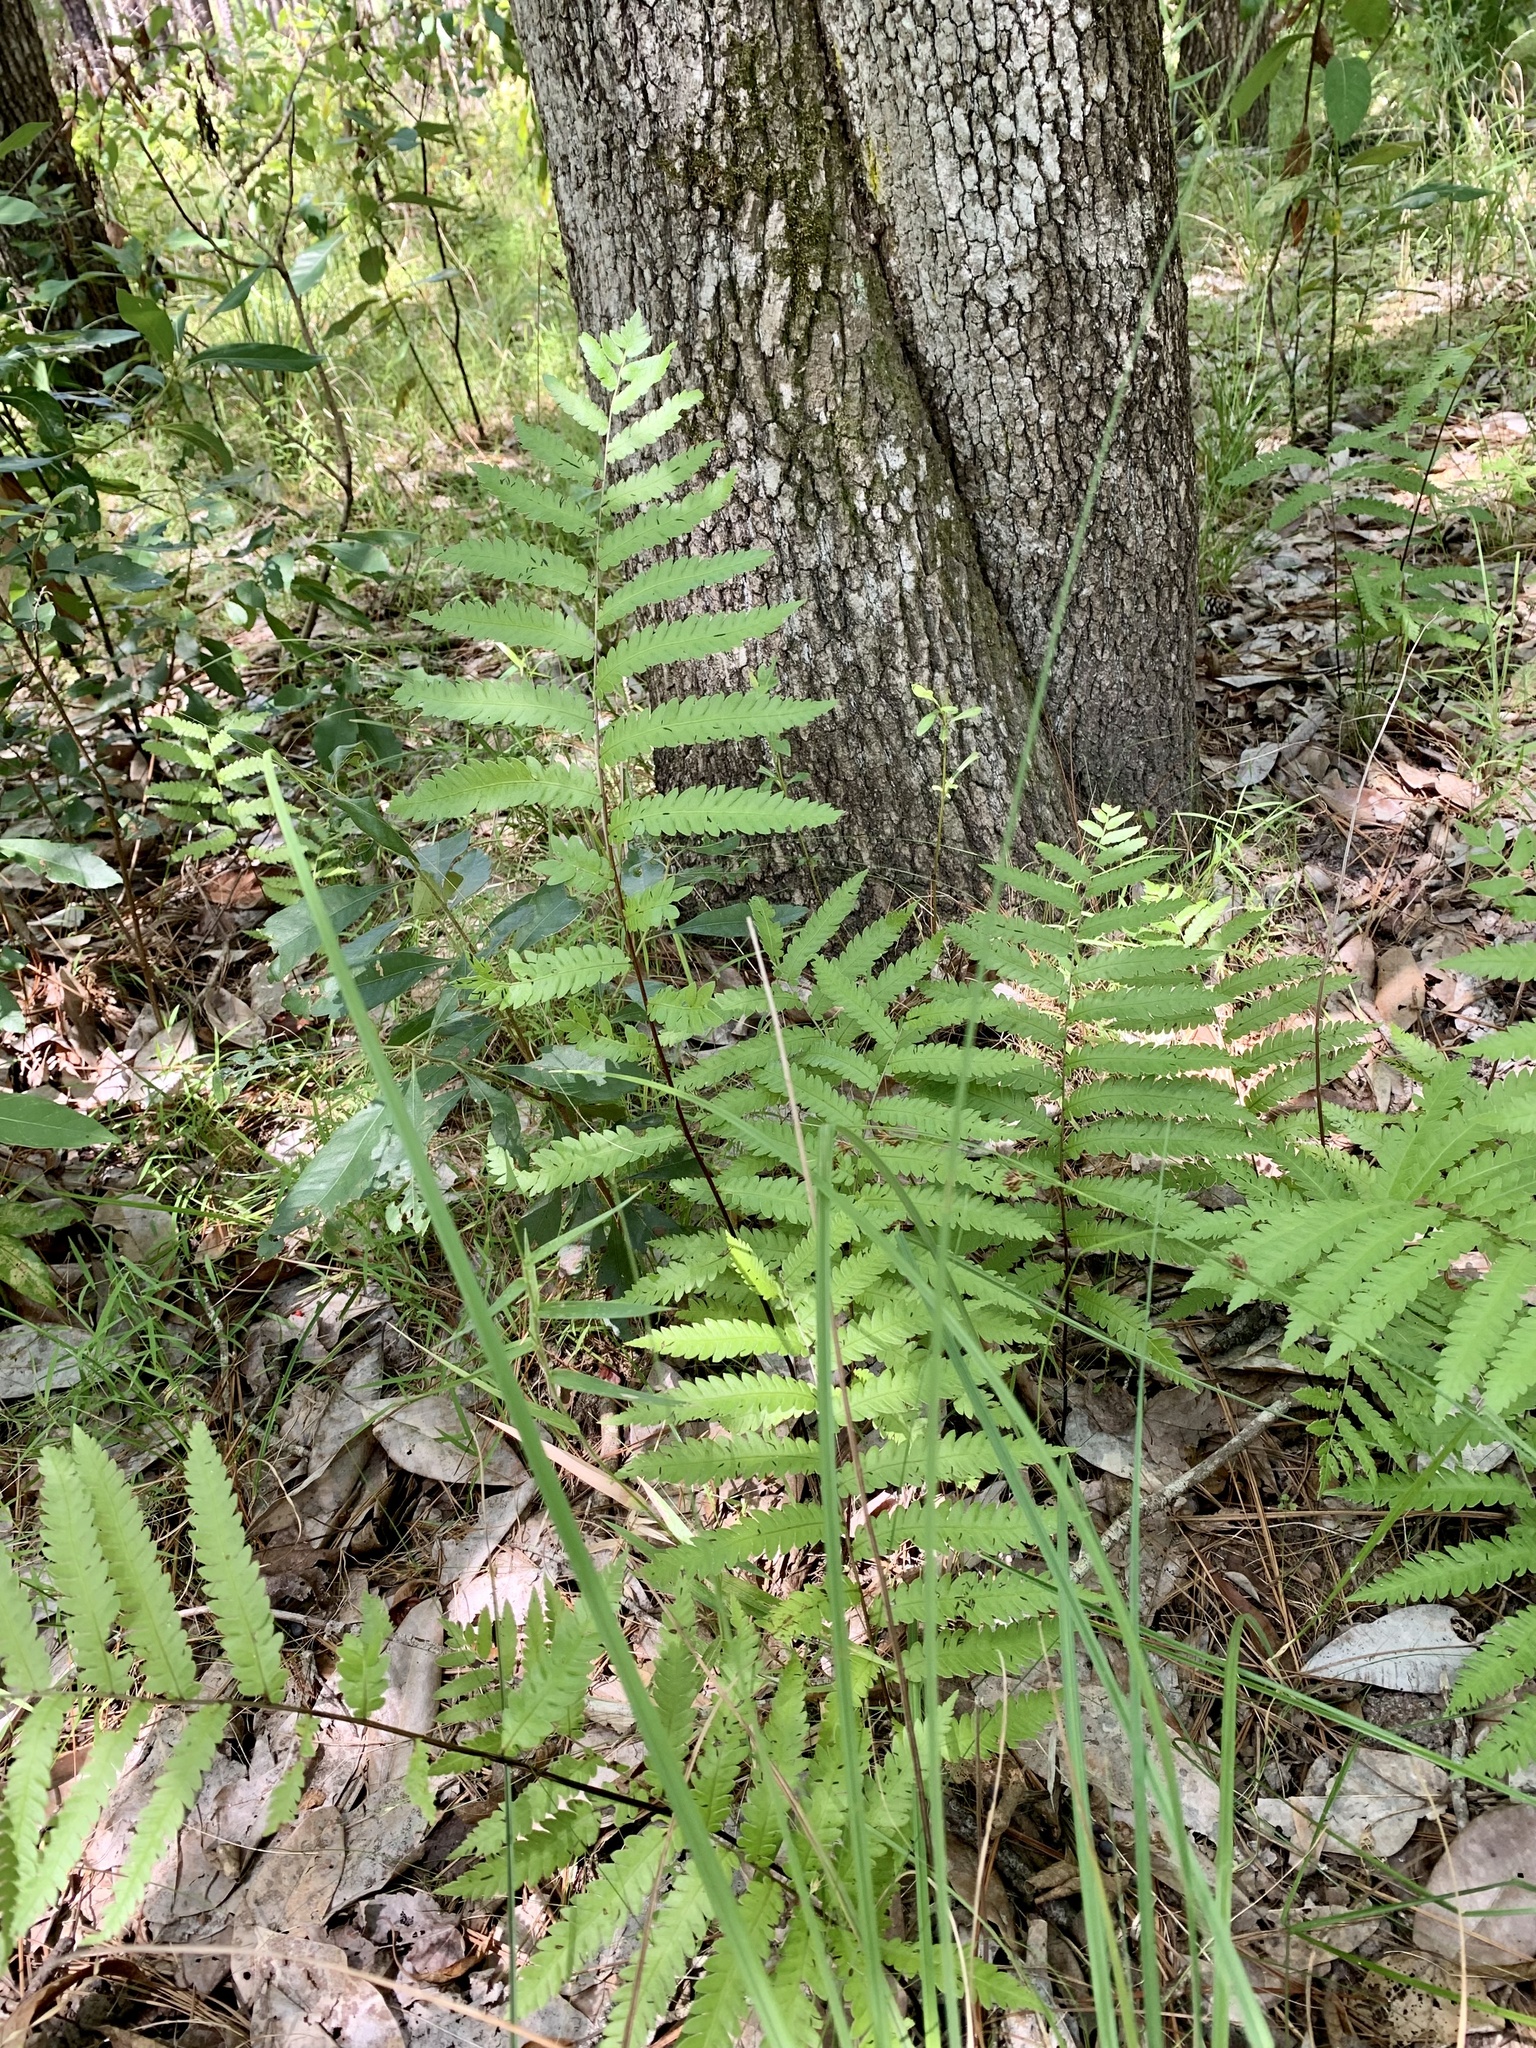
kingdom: Plantae
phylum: Tracheophyta
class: Polypodiopsida
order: Polypodiales
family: Blechnaceae
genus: Anchistea
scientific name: Anchistea virginica
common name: Virginia chain fern
